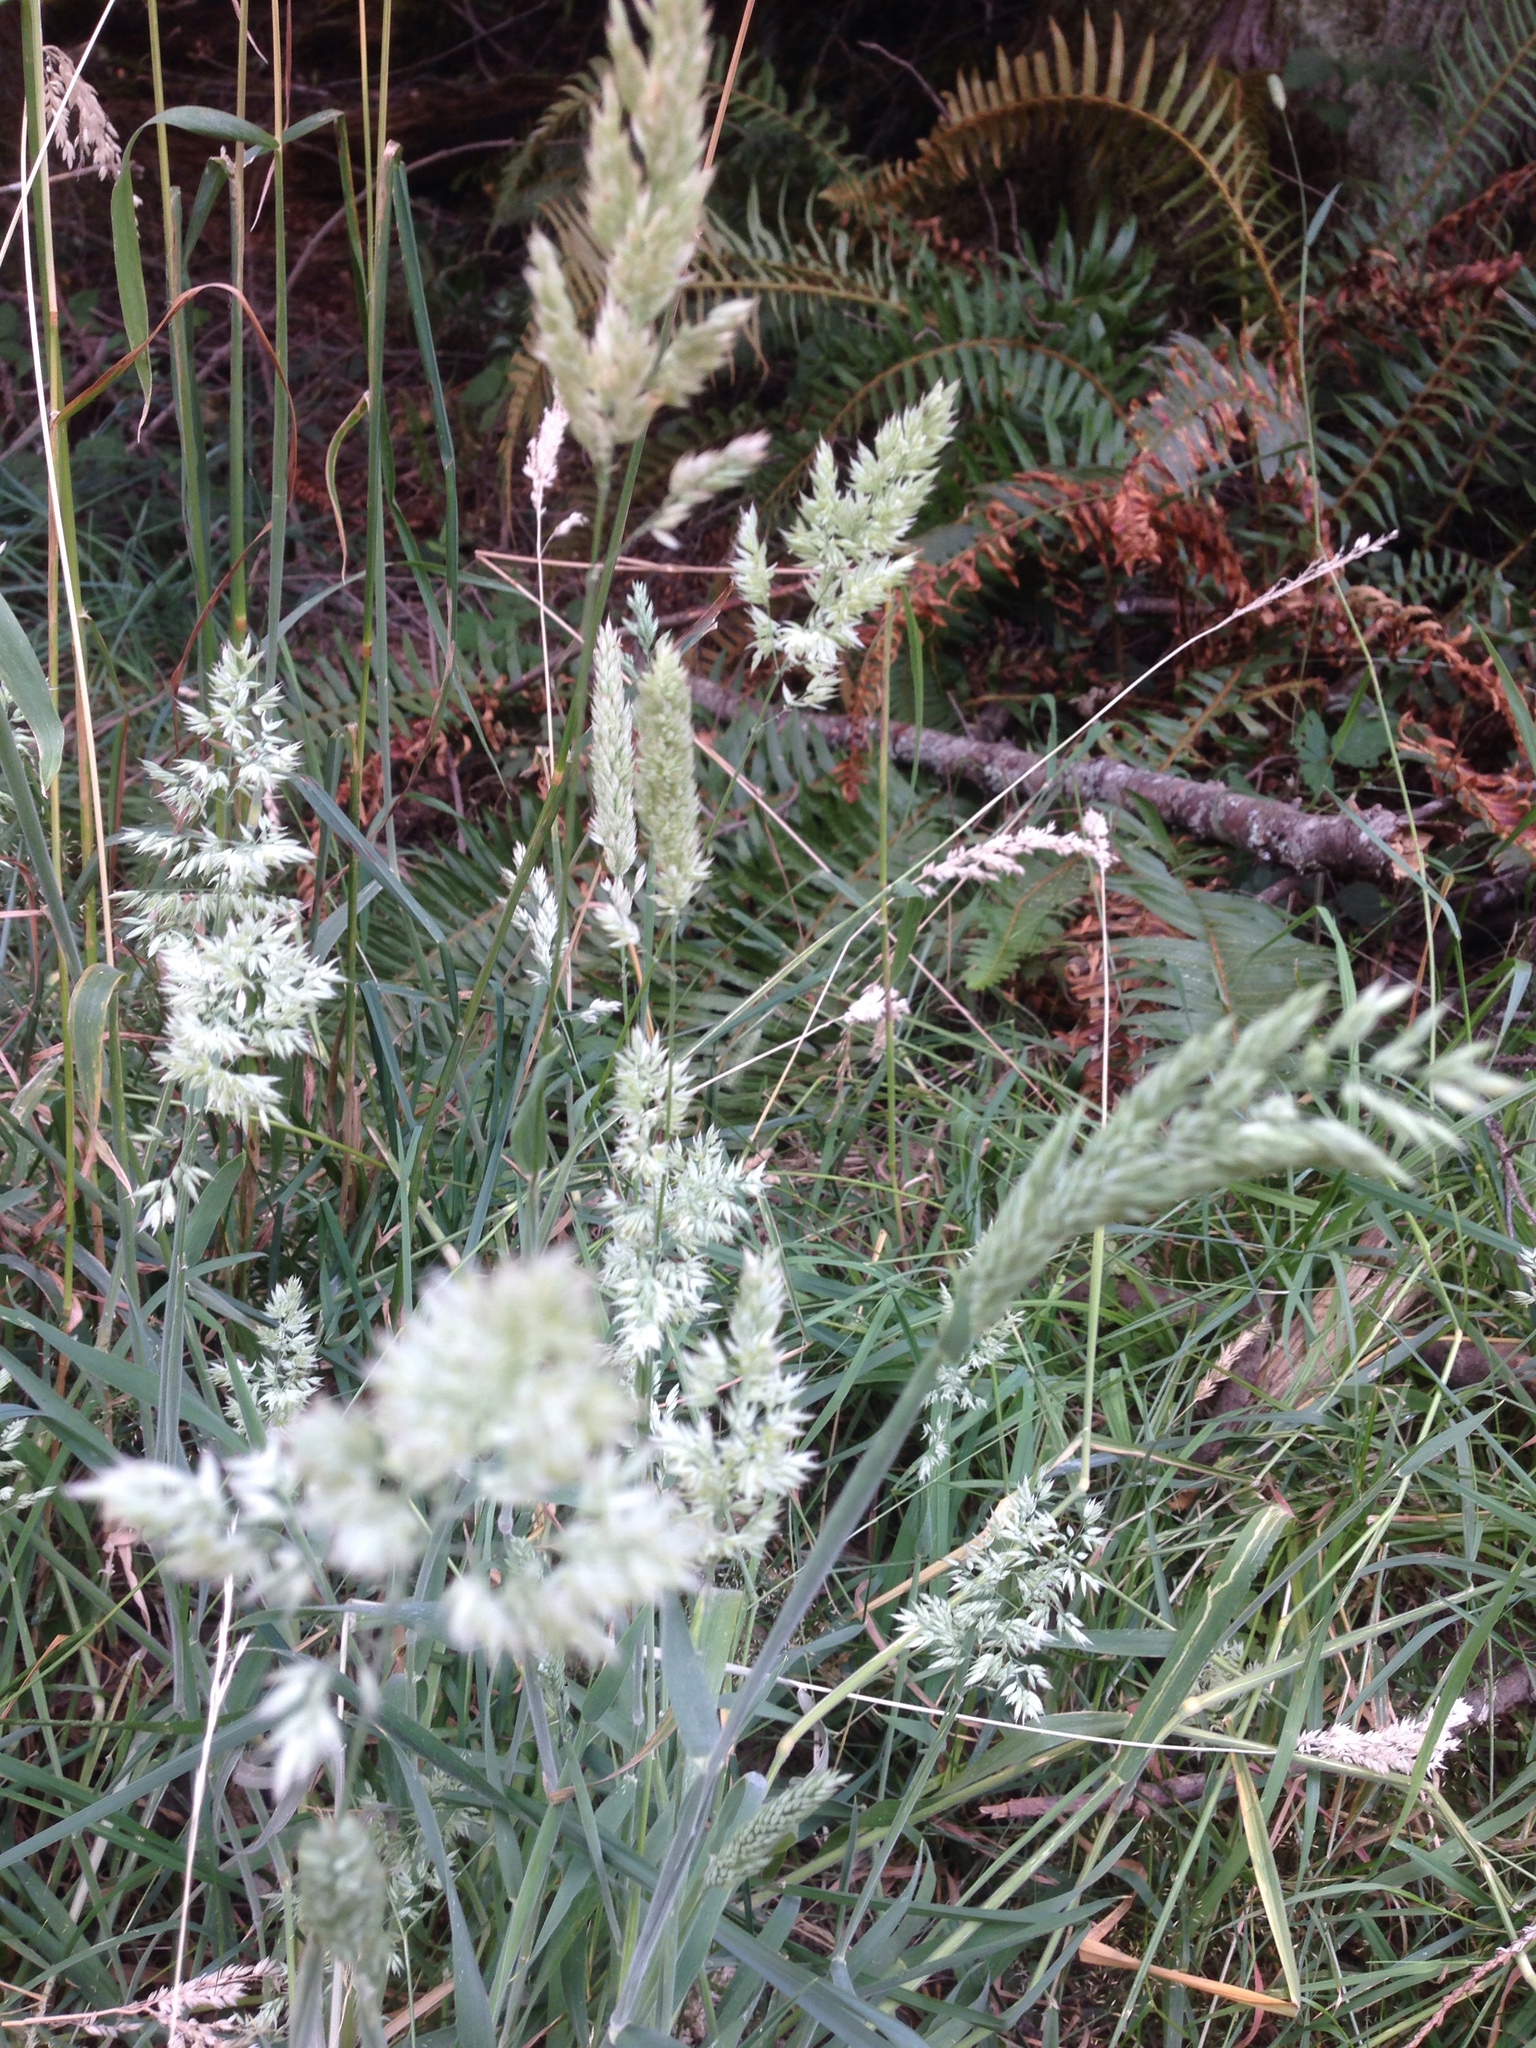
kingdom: Plantae
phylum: Tracheophyta
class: Liliopsida
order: Poales
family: Poaceae
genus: Holcus
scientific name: Holcus lanatus
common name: Yorkshire-fog
